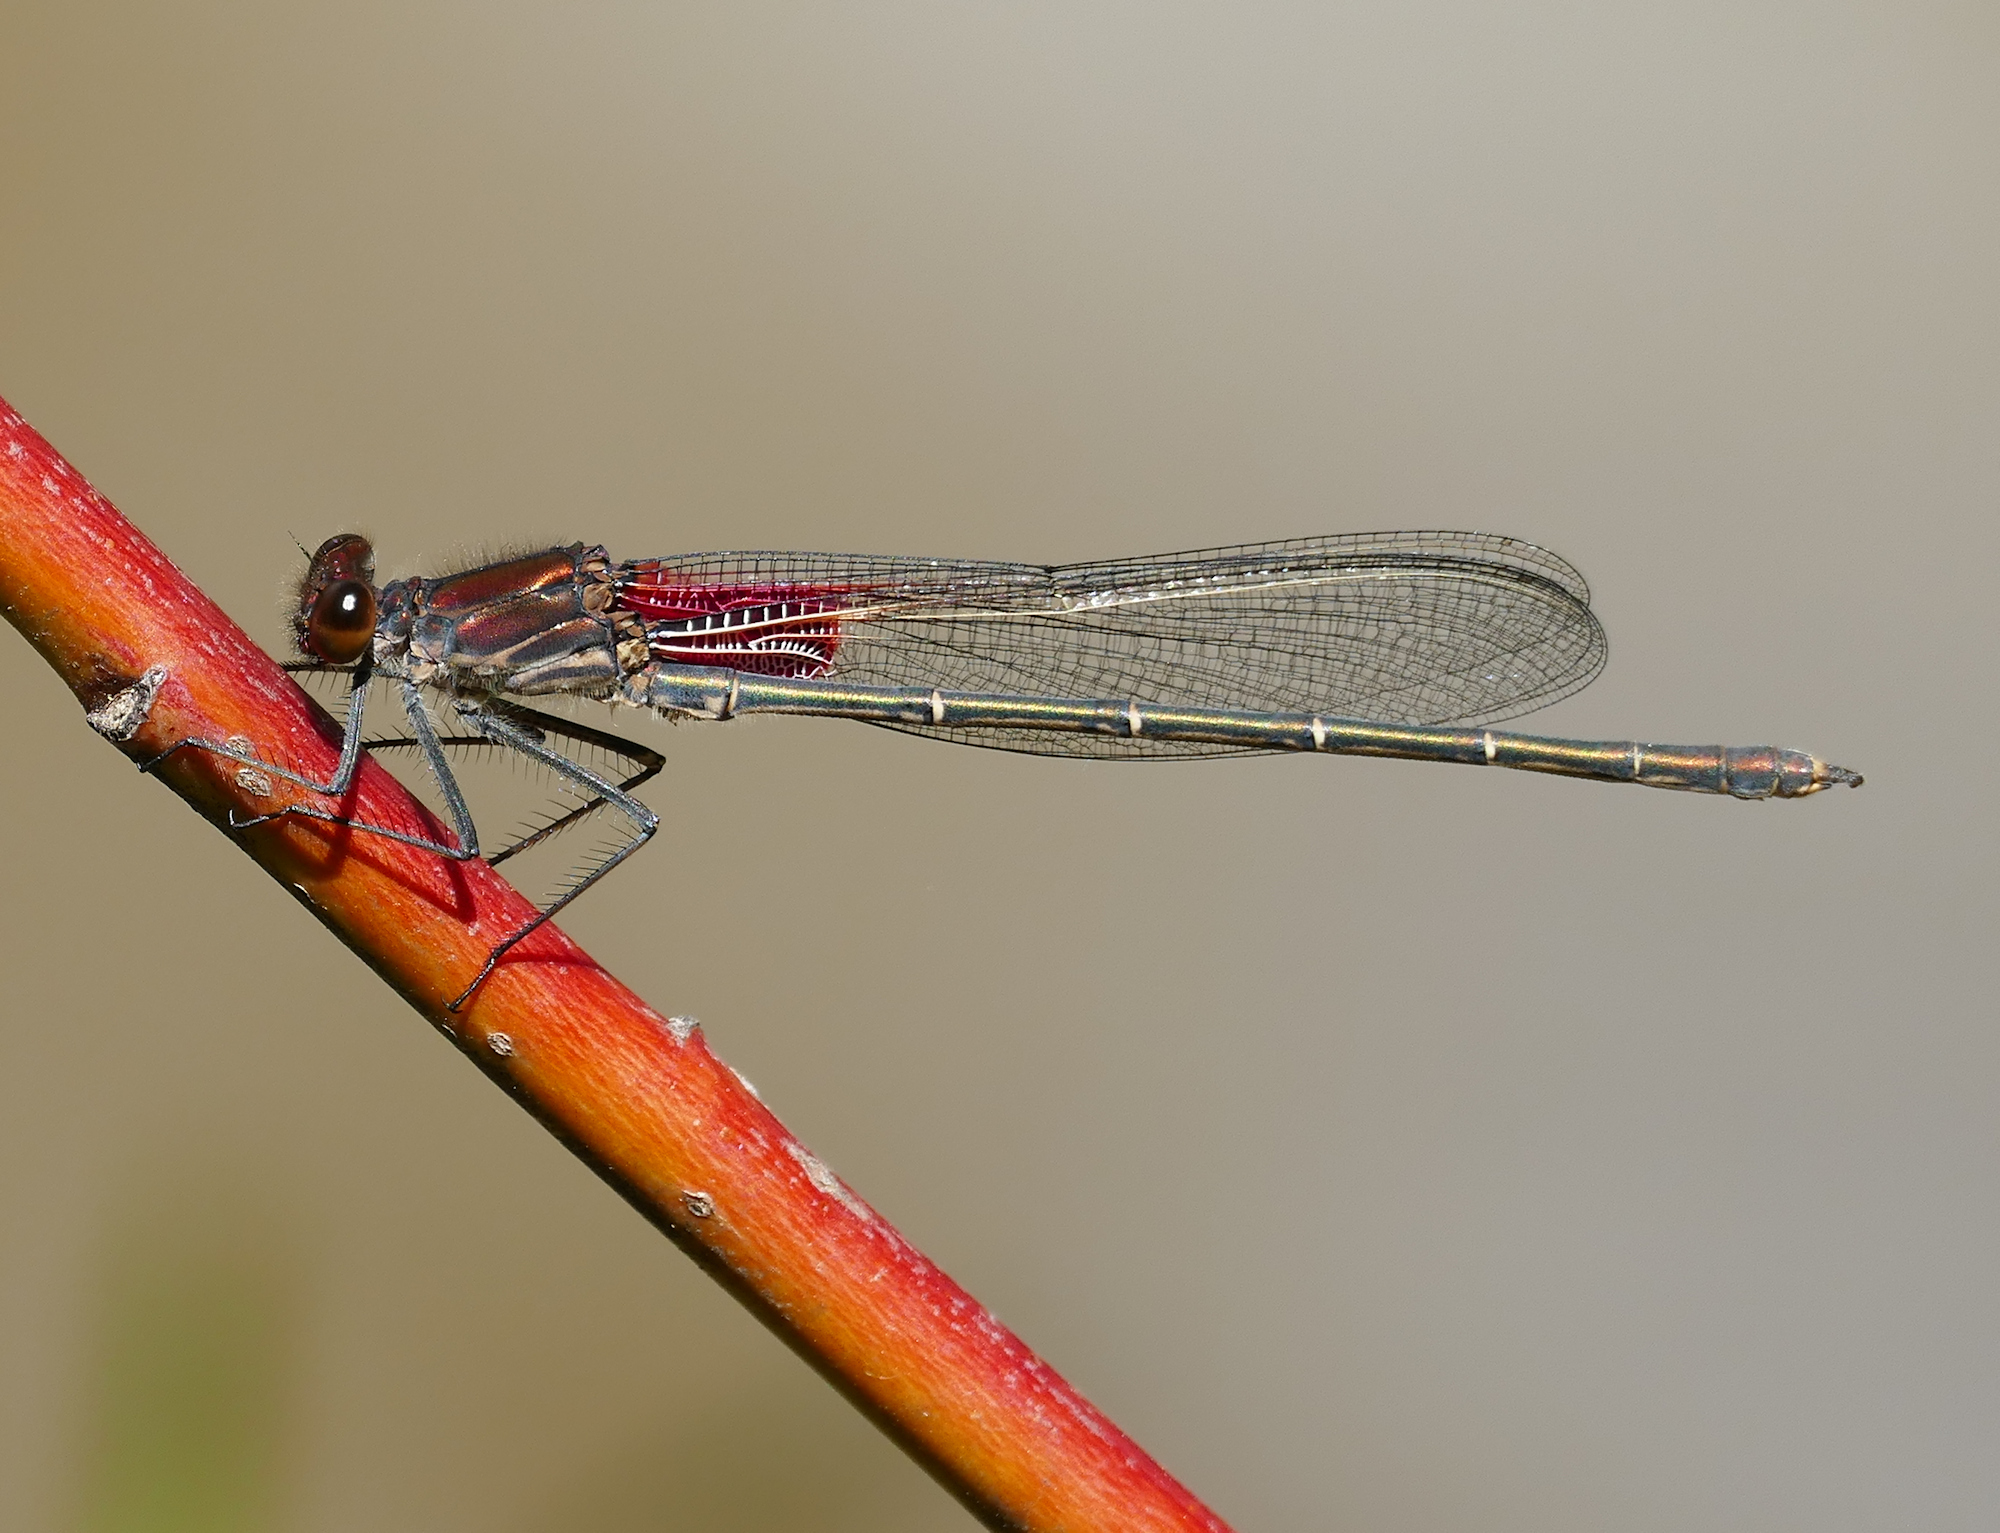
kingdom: Animalia
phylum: Arthropoda
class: Insecta
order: Odonata
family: Calopterygidae
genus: Hetaerina
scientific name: Hetaerina americana
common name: American rubyspot
